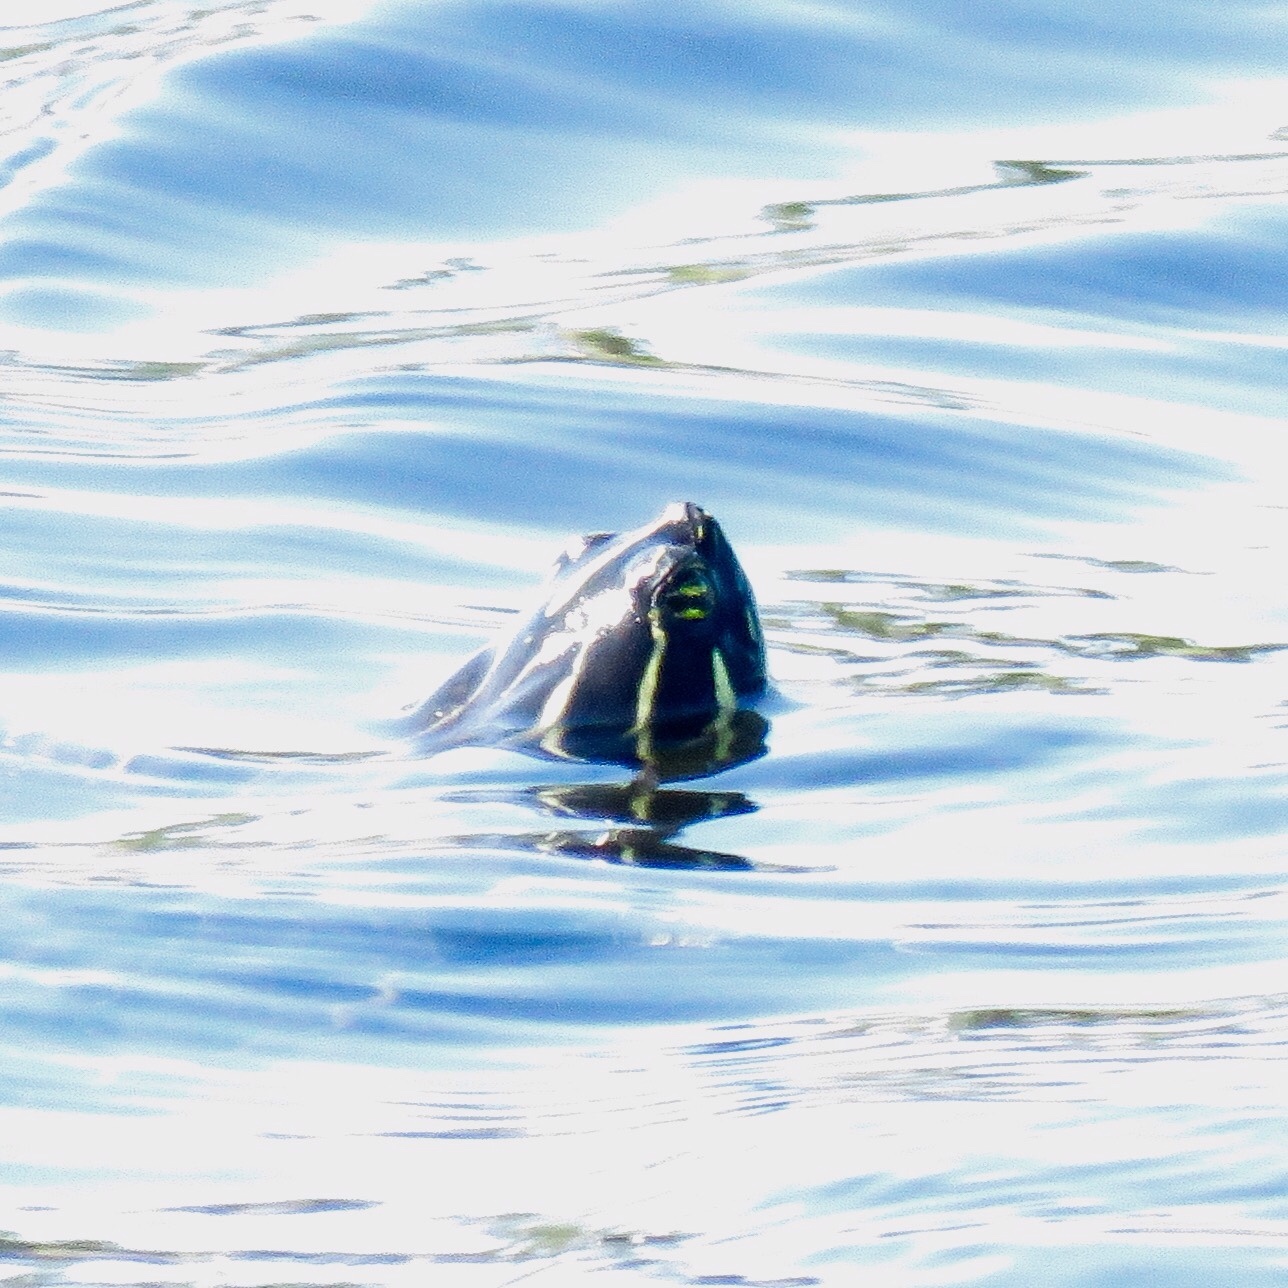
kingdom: Animalia
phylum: Chordata
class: Testudines
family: Emydidae
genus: Pseudemys
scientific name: Pseudemys peninsularis
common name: Peninsula cooter
